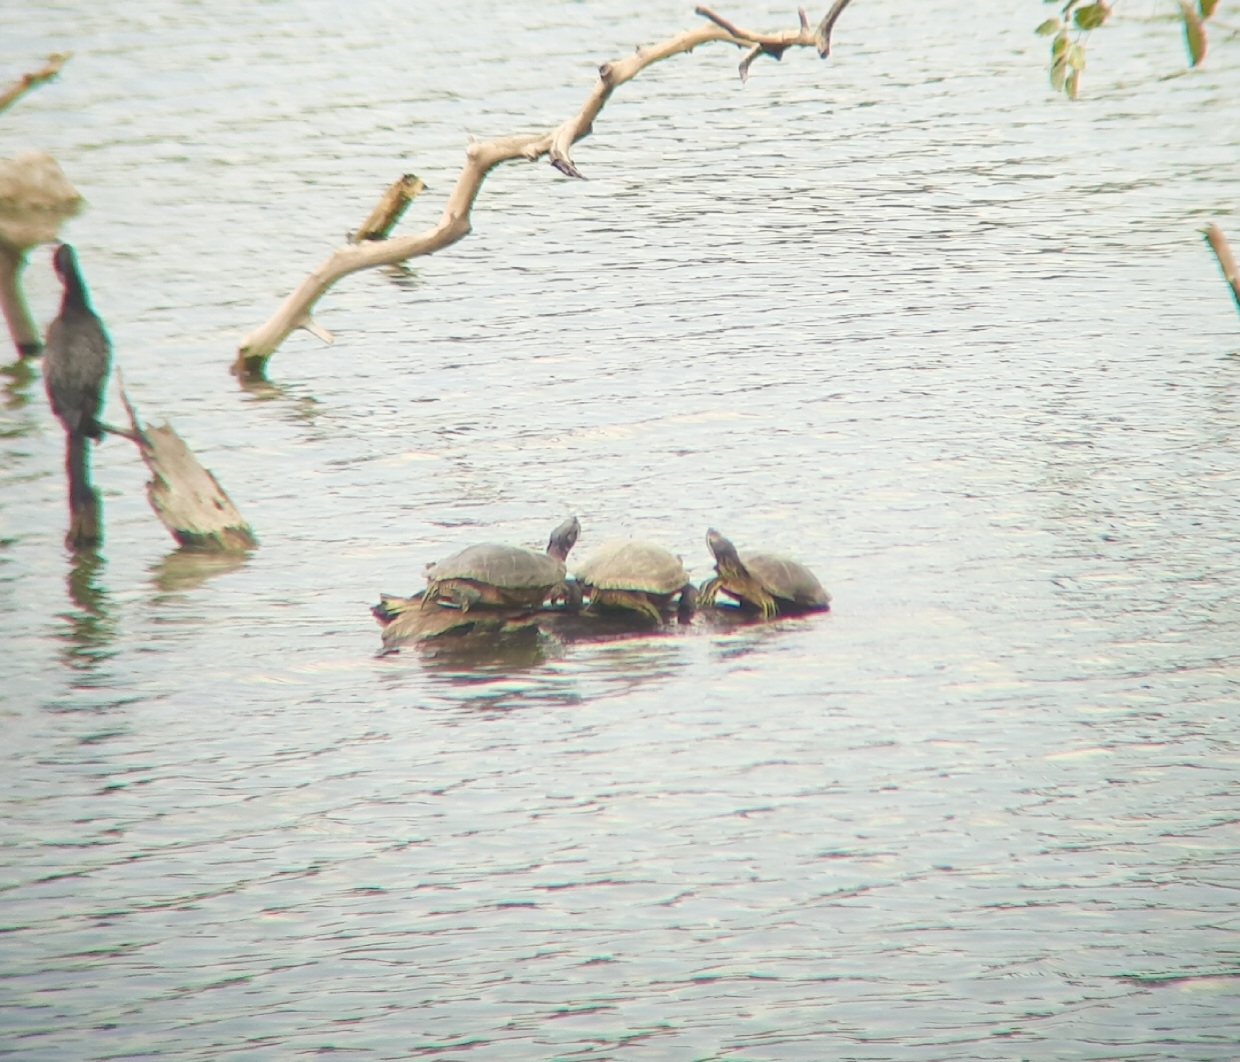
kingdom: Animalia
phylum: Chordata
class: Testudines
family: Emydidae
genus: Trachemys
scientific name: Trachemys scripta
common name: Slider
